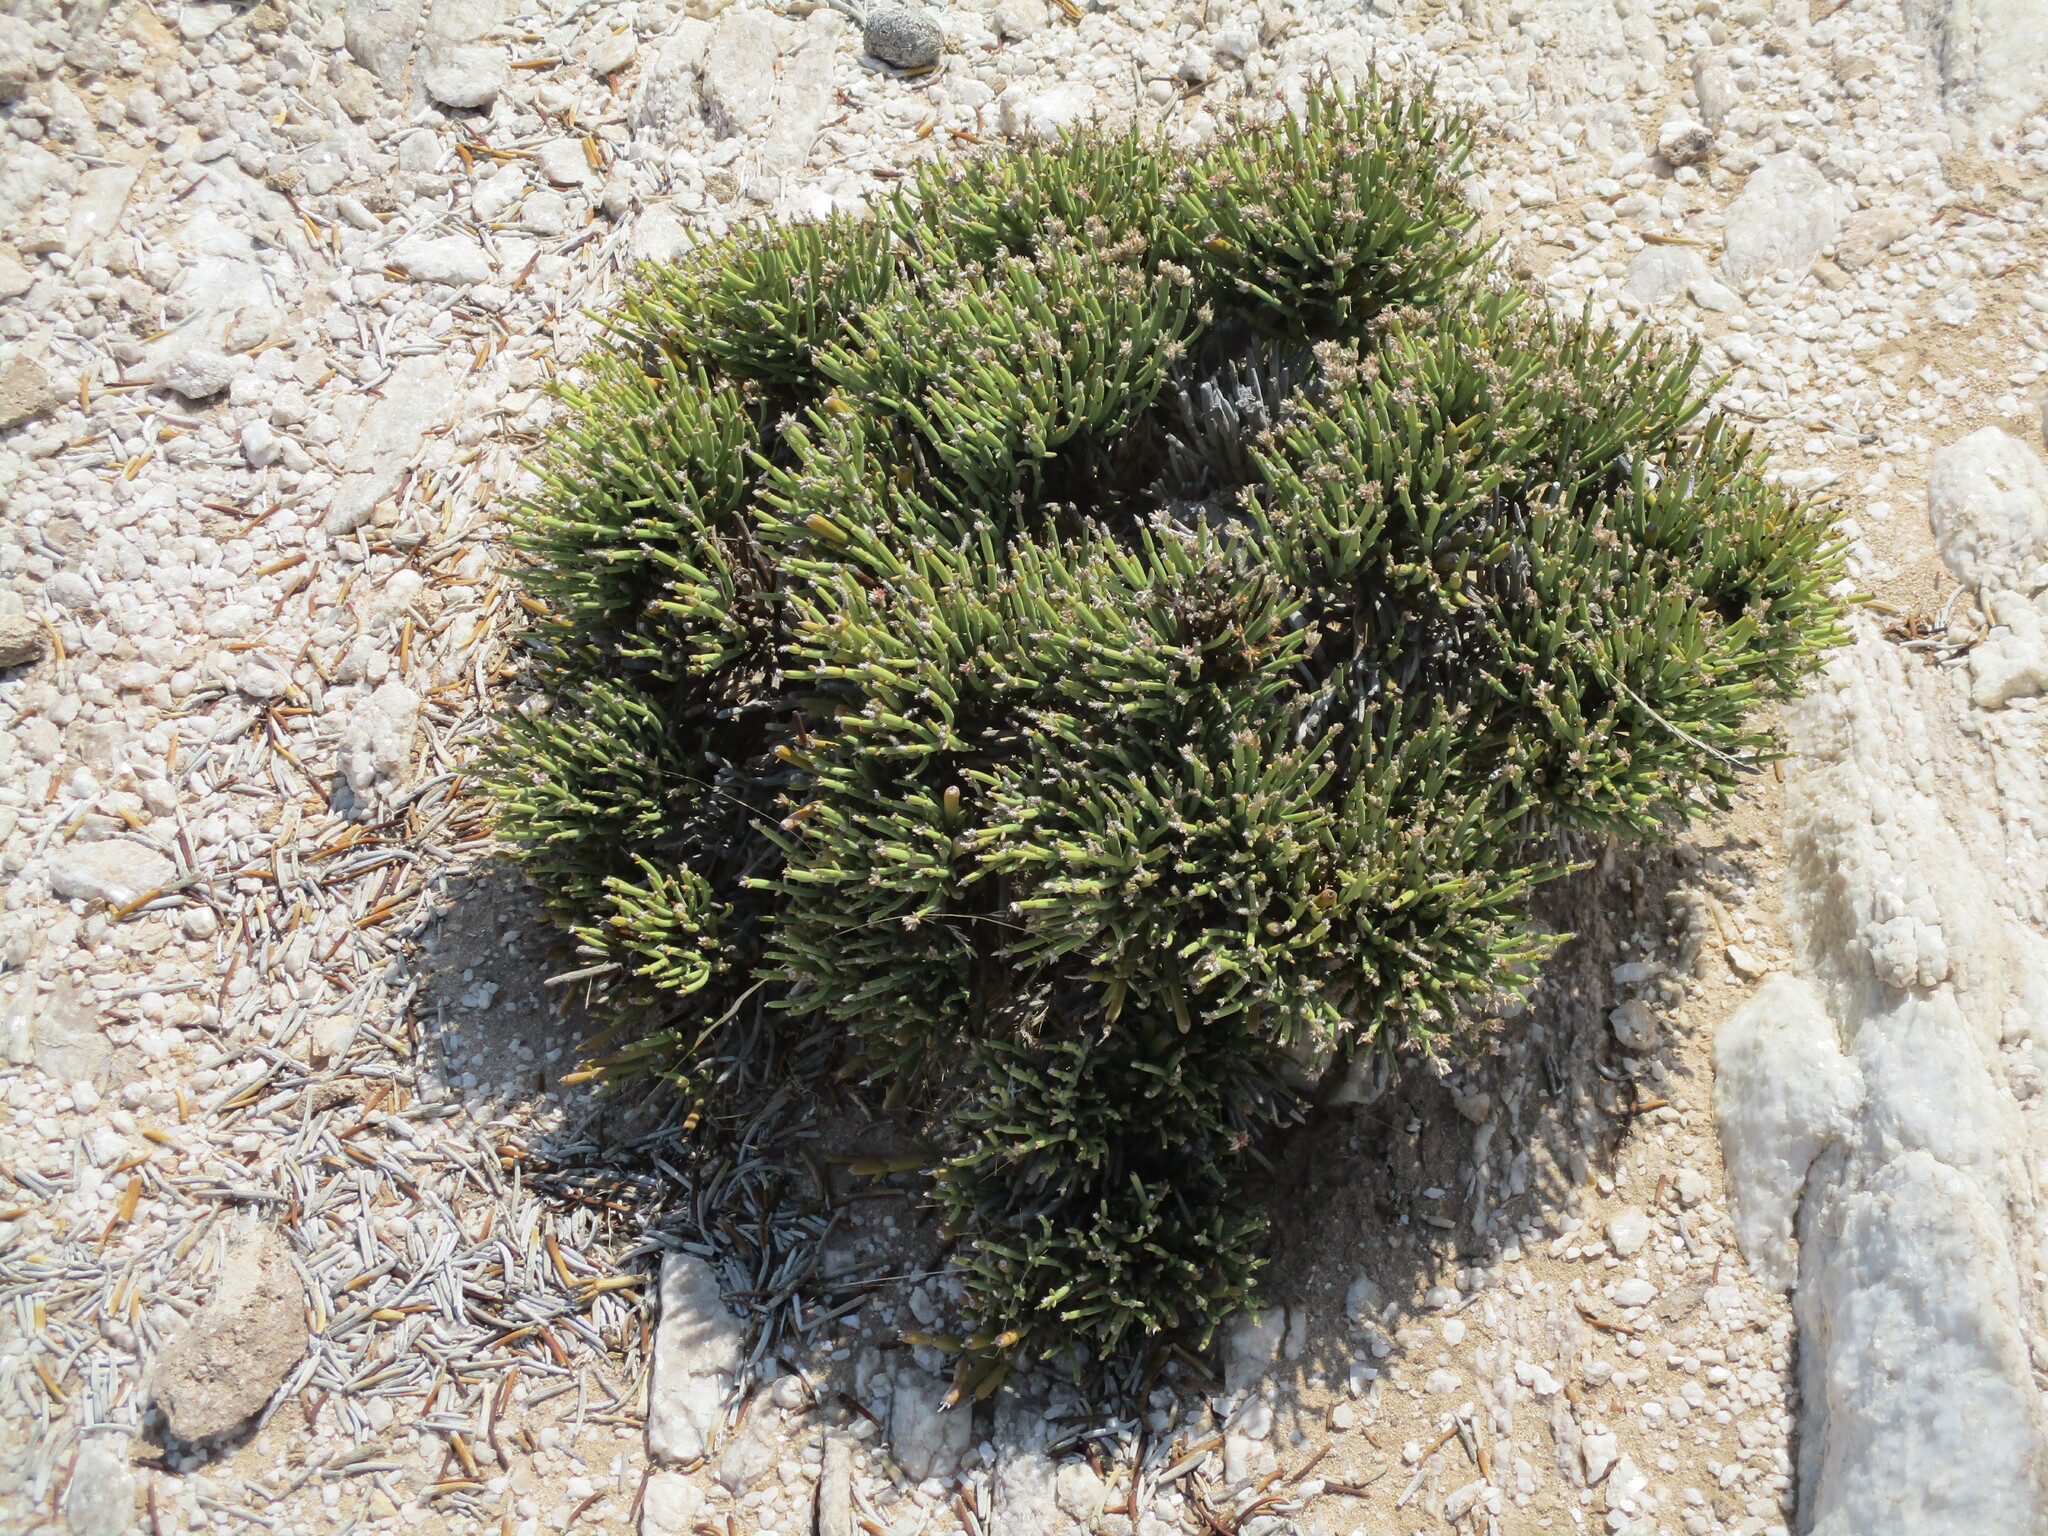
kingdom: Plantae
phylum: Tracheophyta
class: Magnoliopsida
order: Caryophyllales
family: Amaranthaceae
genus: Arthraerva
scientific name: Arthraerva leubnitziae
